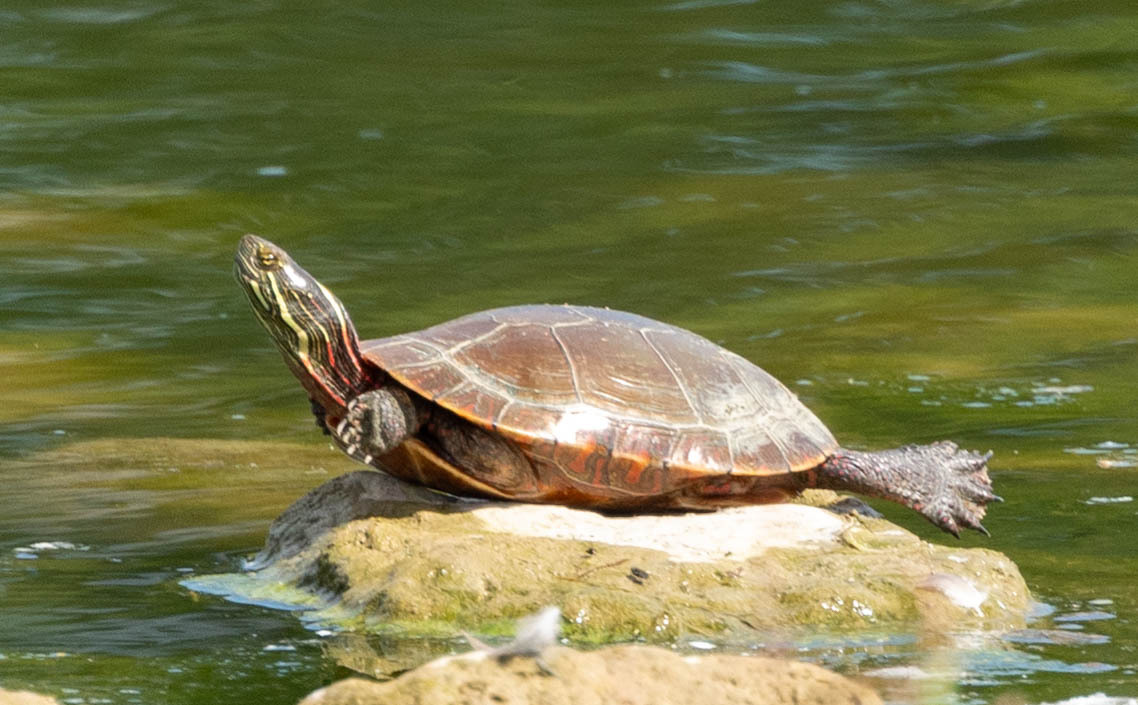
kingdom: Animalia
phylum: Chordata
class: Testudines
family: Emydidae
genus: Chrysemys
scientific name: Chrysemys picta
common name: Painted turtle
